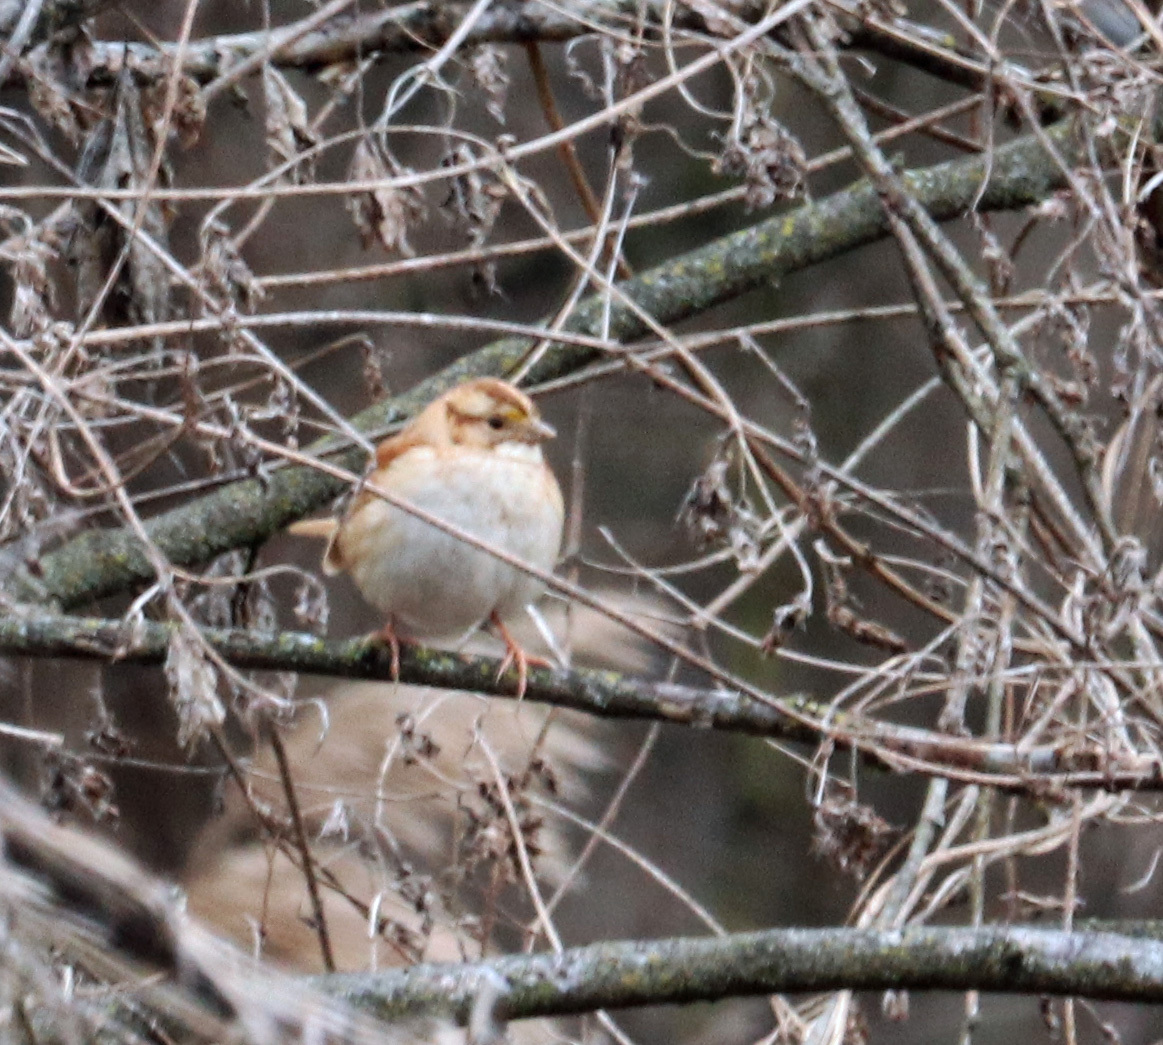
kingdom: Animalia
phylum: Chordata
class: Aves
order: Passeriformes
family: Passerellidae
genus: Zonotrichia
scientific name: Zonotrichia albicollis
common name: White-throated sparrow
